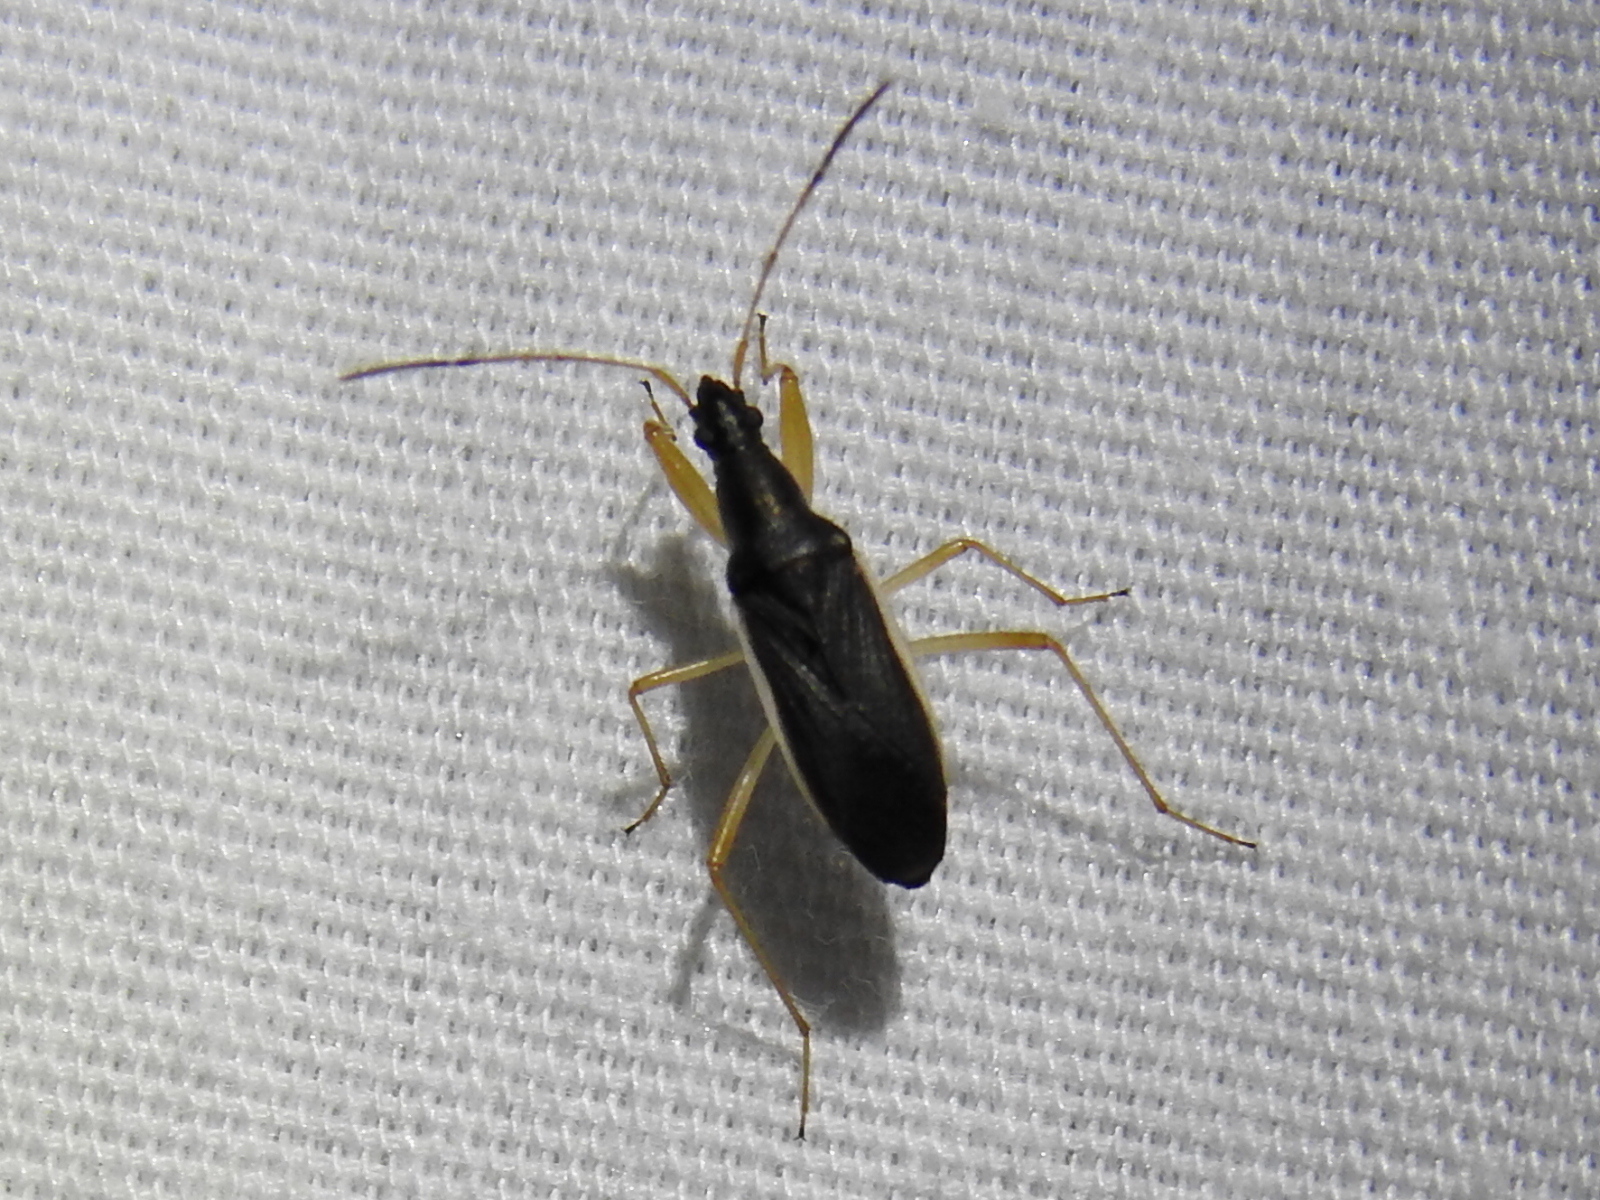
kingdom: Animalia
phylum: Arthropoda
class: Insecta
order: Hemiptera
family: Rhyparochromidae
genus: Cnemodus
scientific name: Cnemodus mavortius
